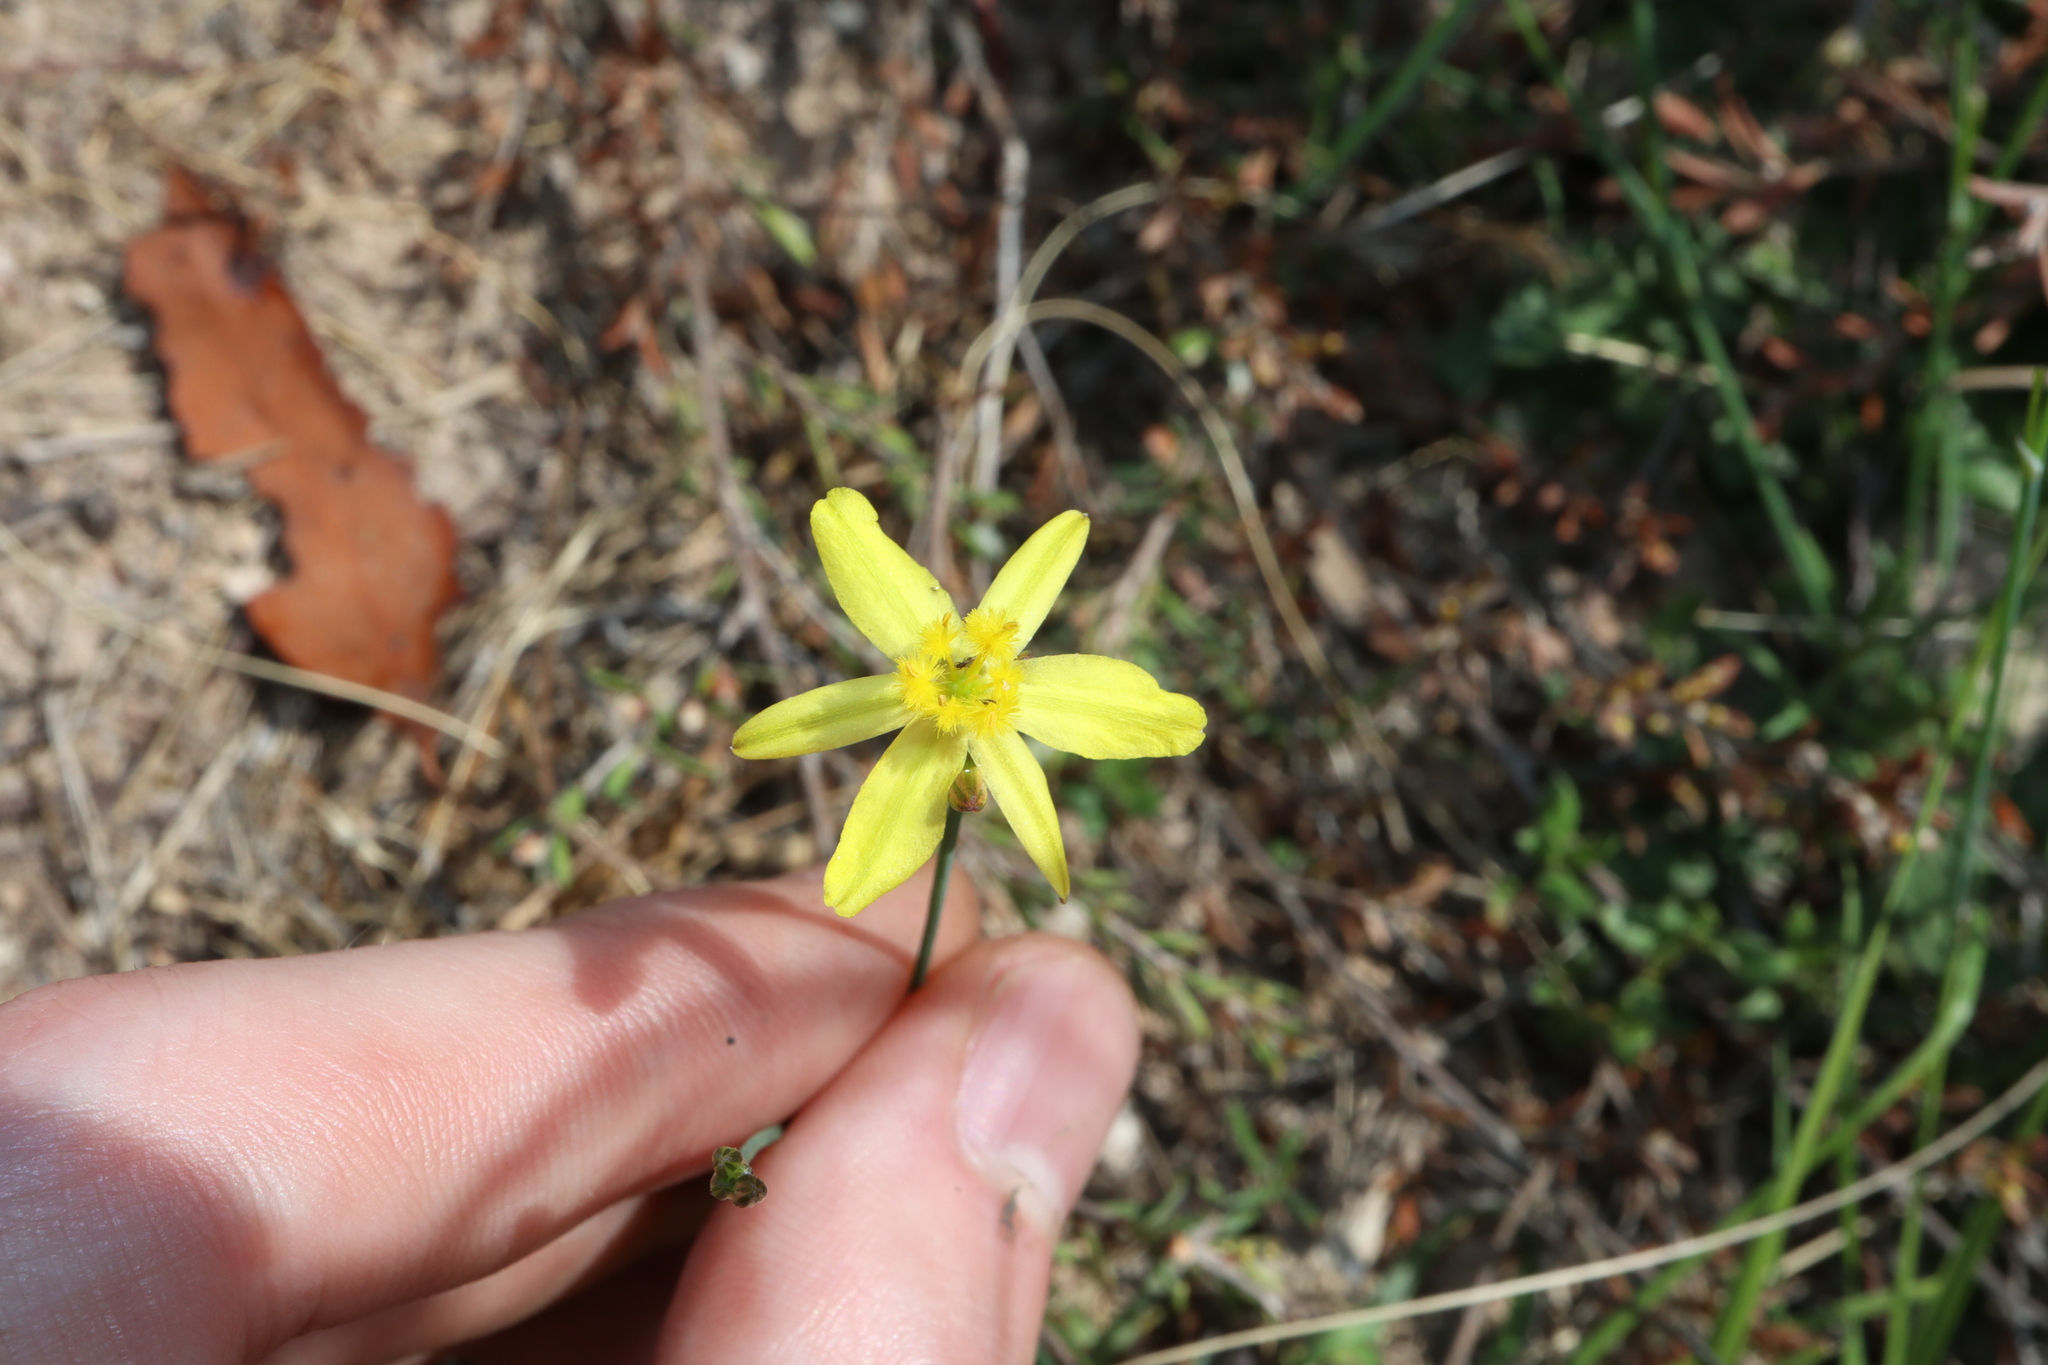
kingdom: Plantae
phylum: Tracheophyta
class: Liliopsida
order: Asparagales
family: Asphodelaceae
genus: Tricoryne
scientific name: Tricoryne elatior
